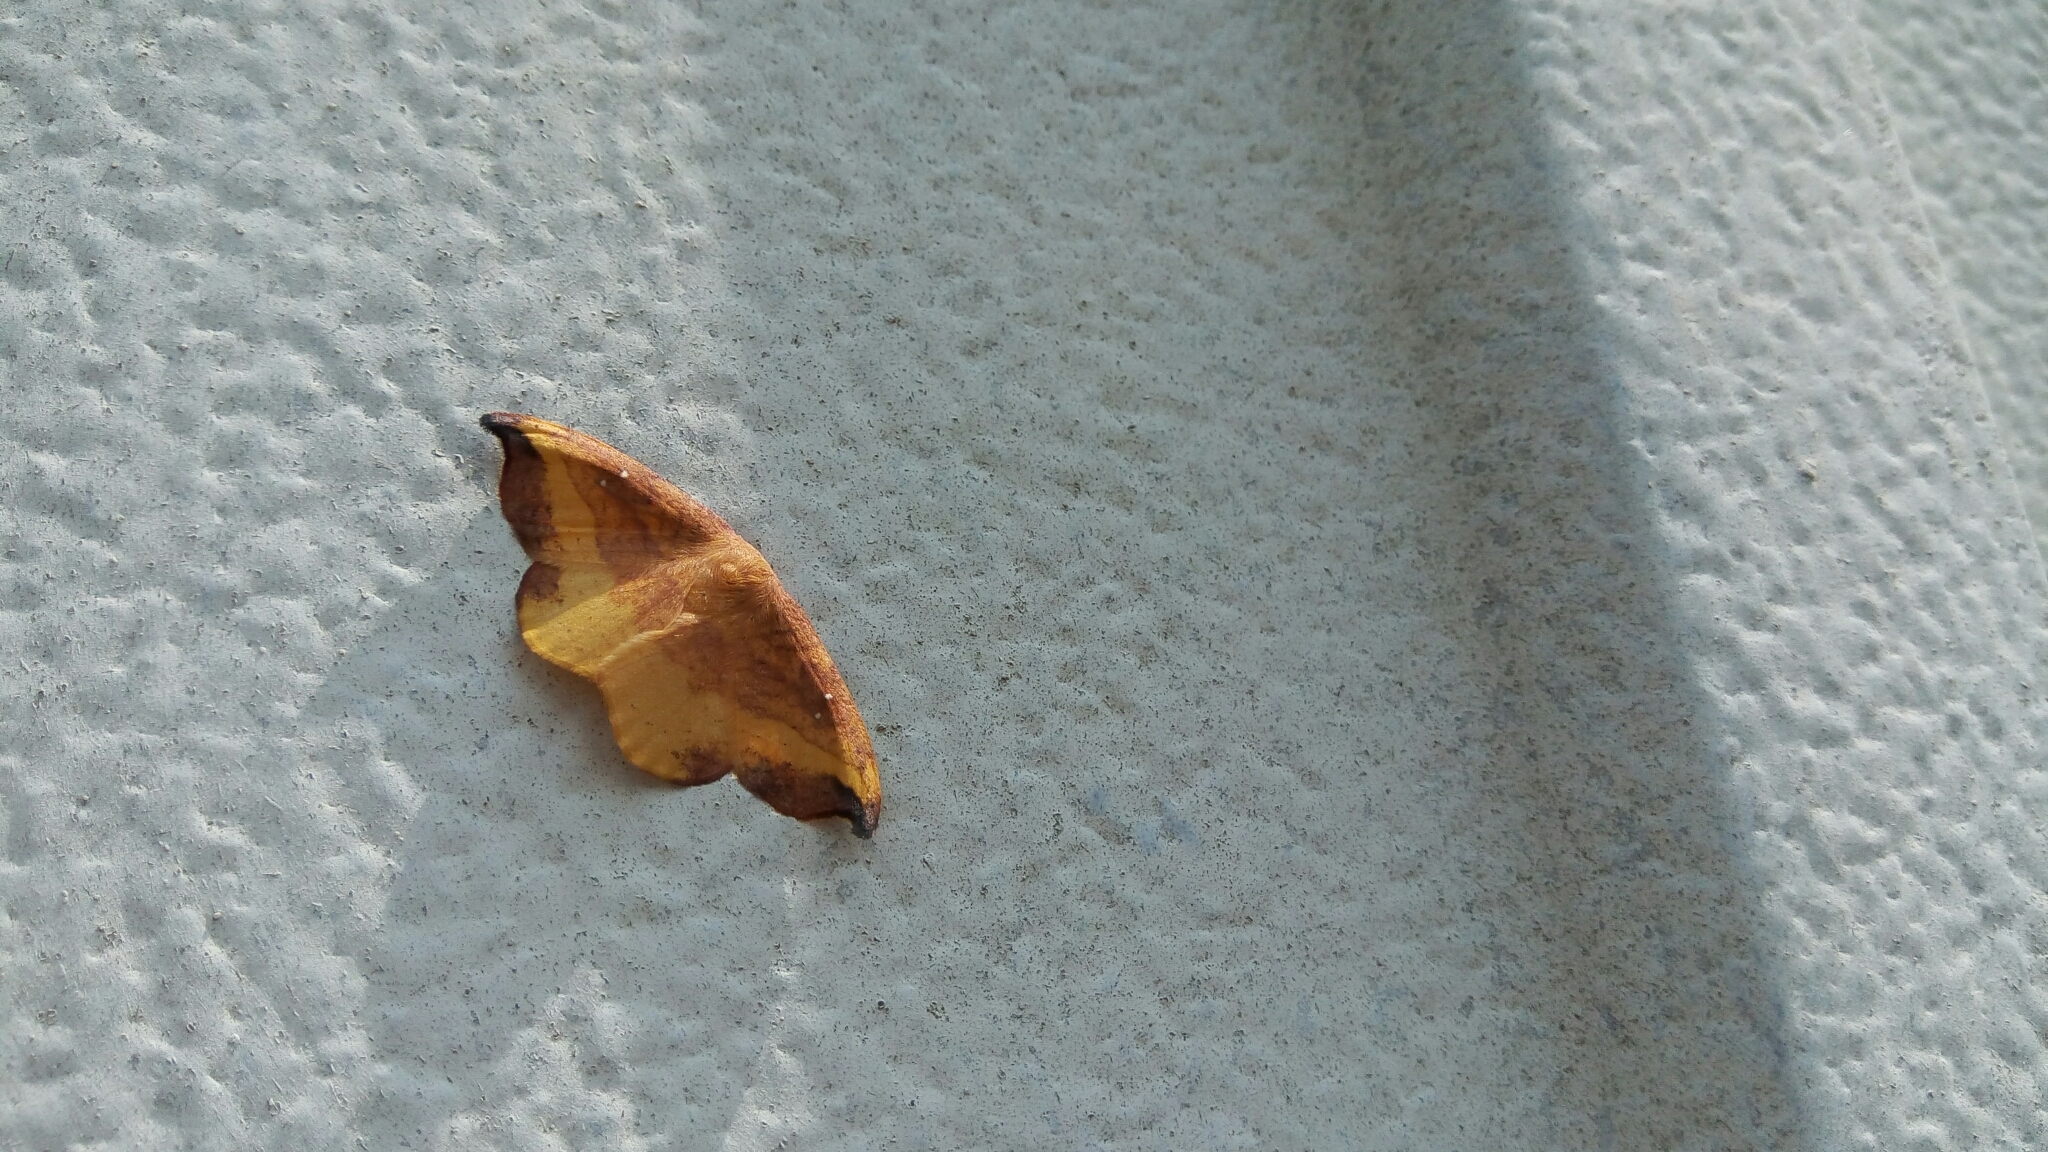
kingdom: Animalia
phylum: Arthropoda
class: Insecta
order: Lepidoptera
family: Drepanidae
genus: Oreta
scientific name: Oreta rosea
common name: Rose hooktip
